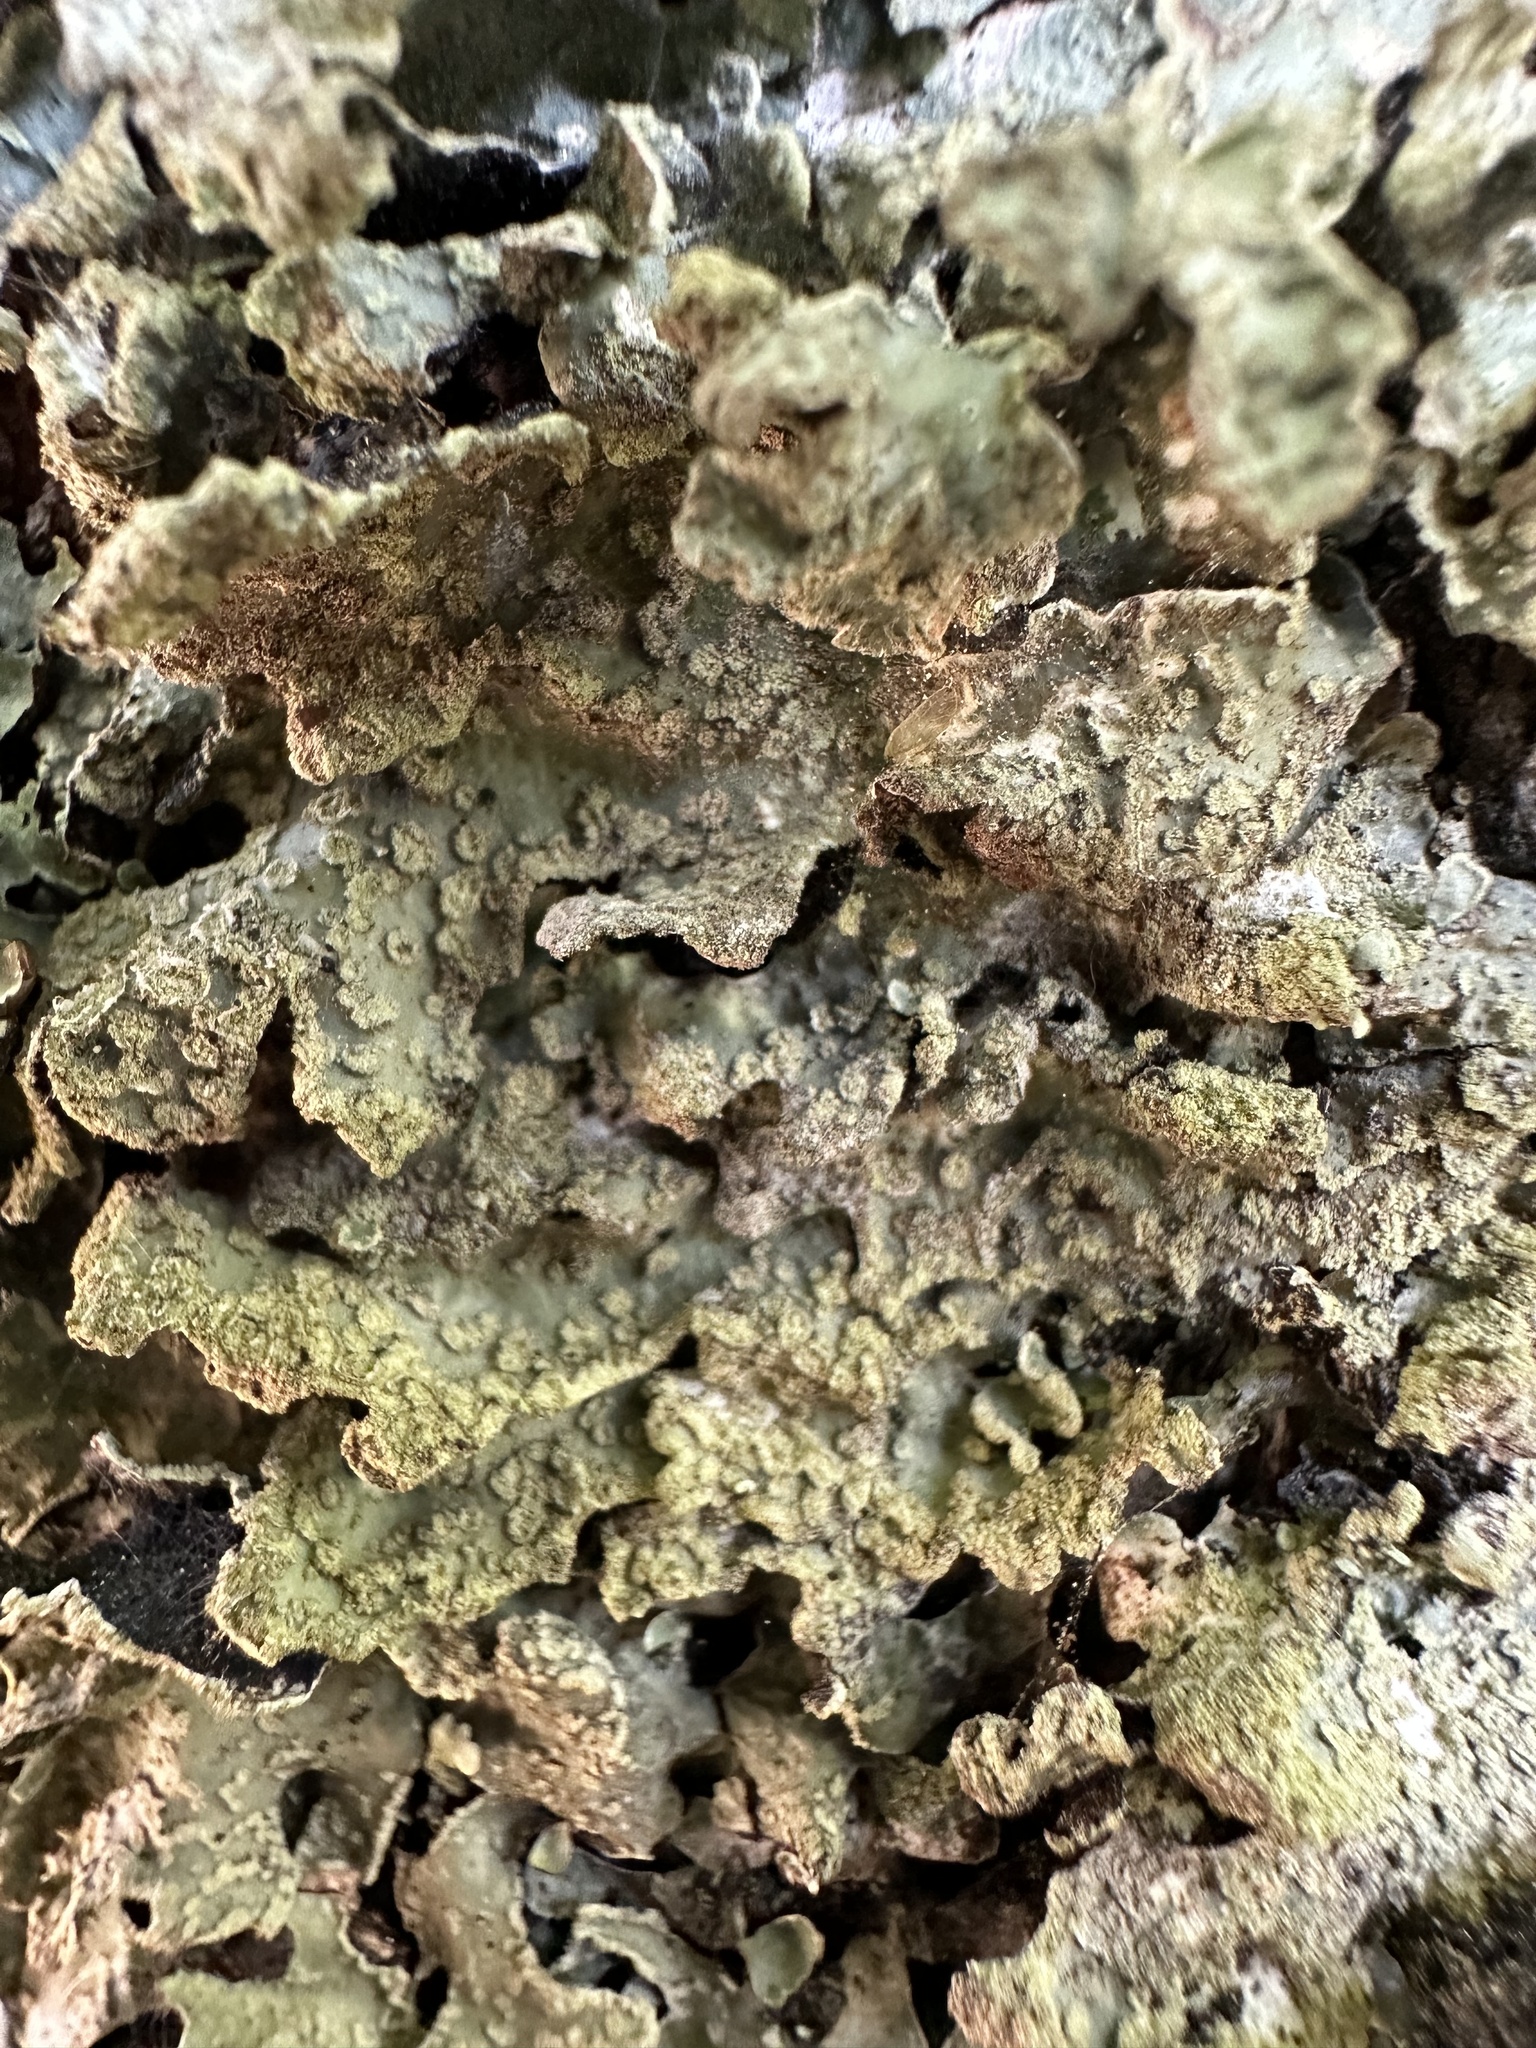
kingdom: Fungi
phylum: Ascomycota
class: Lecanoromycetes
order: Lecanorales
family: Parmeliaceae
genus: Parmelia
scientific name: Parmelia sulcata
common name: Netted shield lichen
